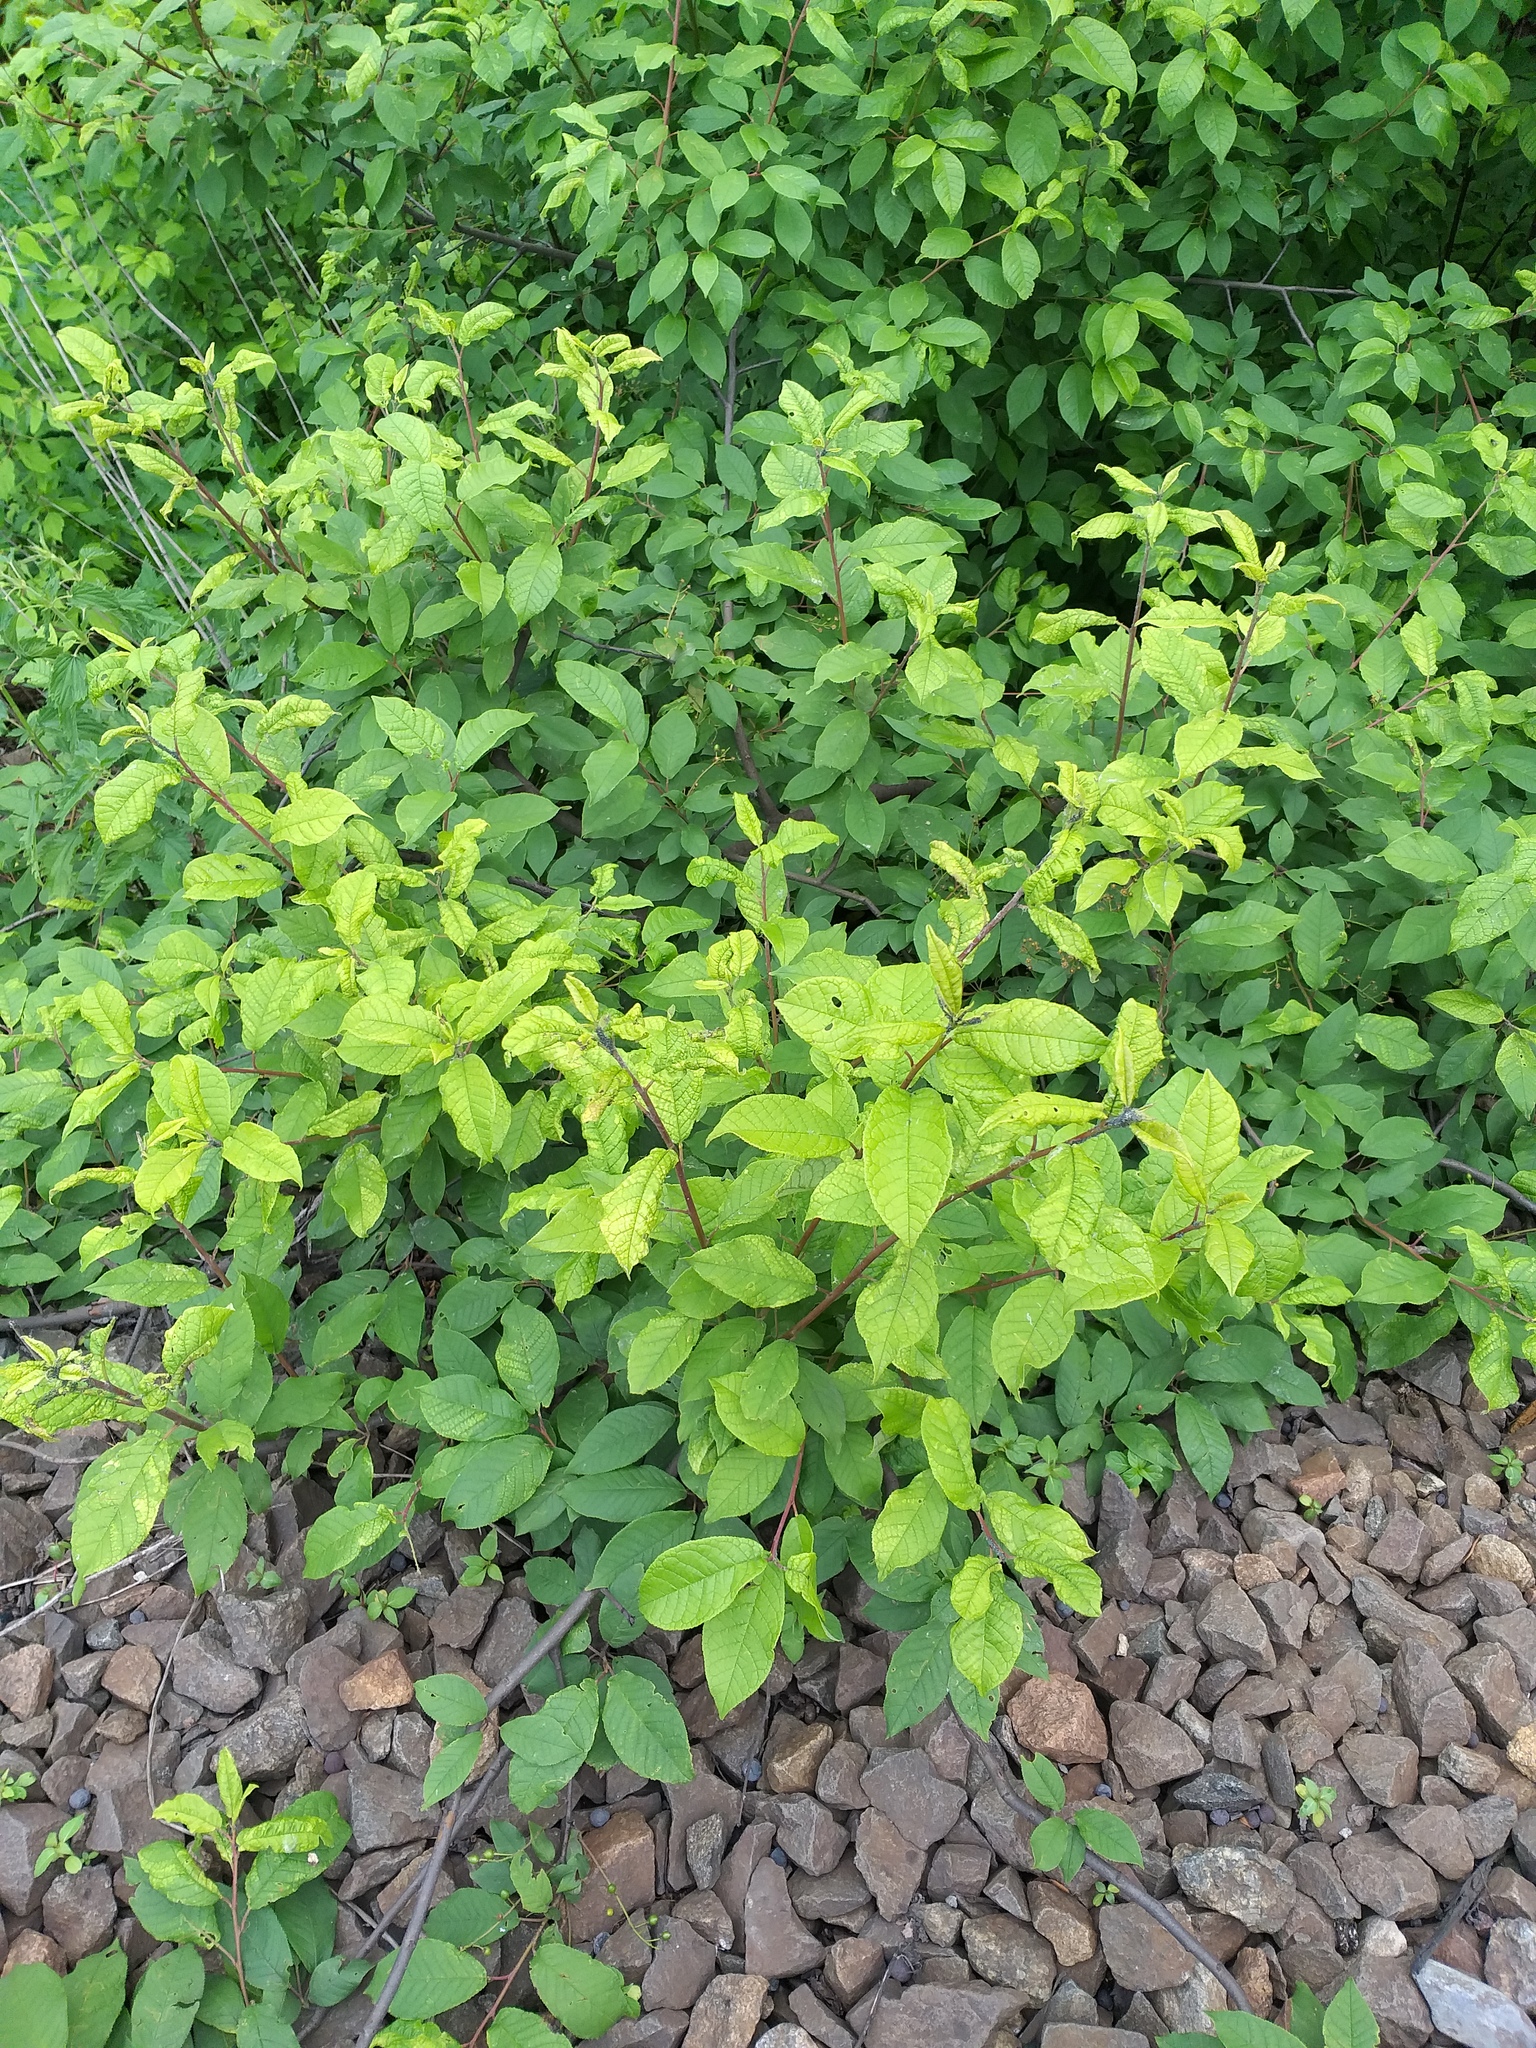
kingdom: Plantae
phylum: Tracheophyta
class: Magnoliopsida
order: Rosales
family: Rosaceae
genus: Prunus
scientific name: Prunus padus
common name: Bird cherry
